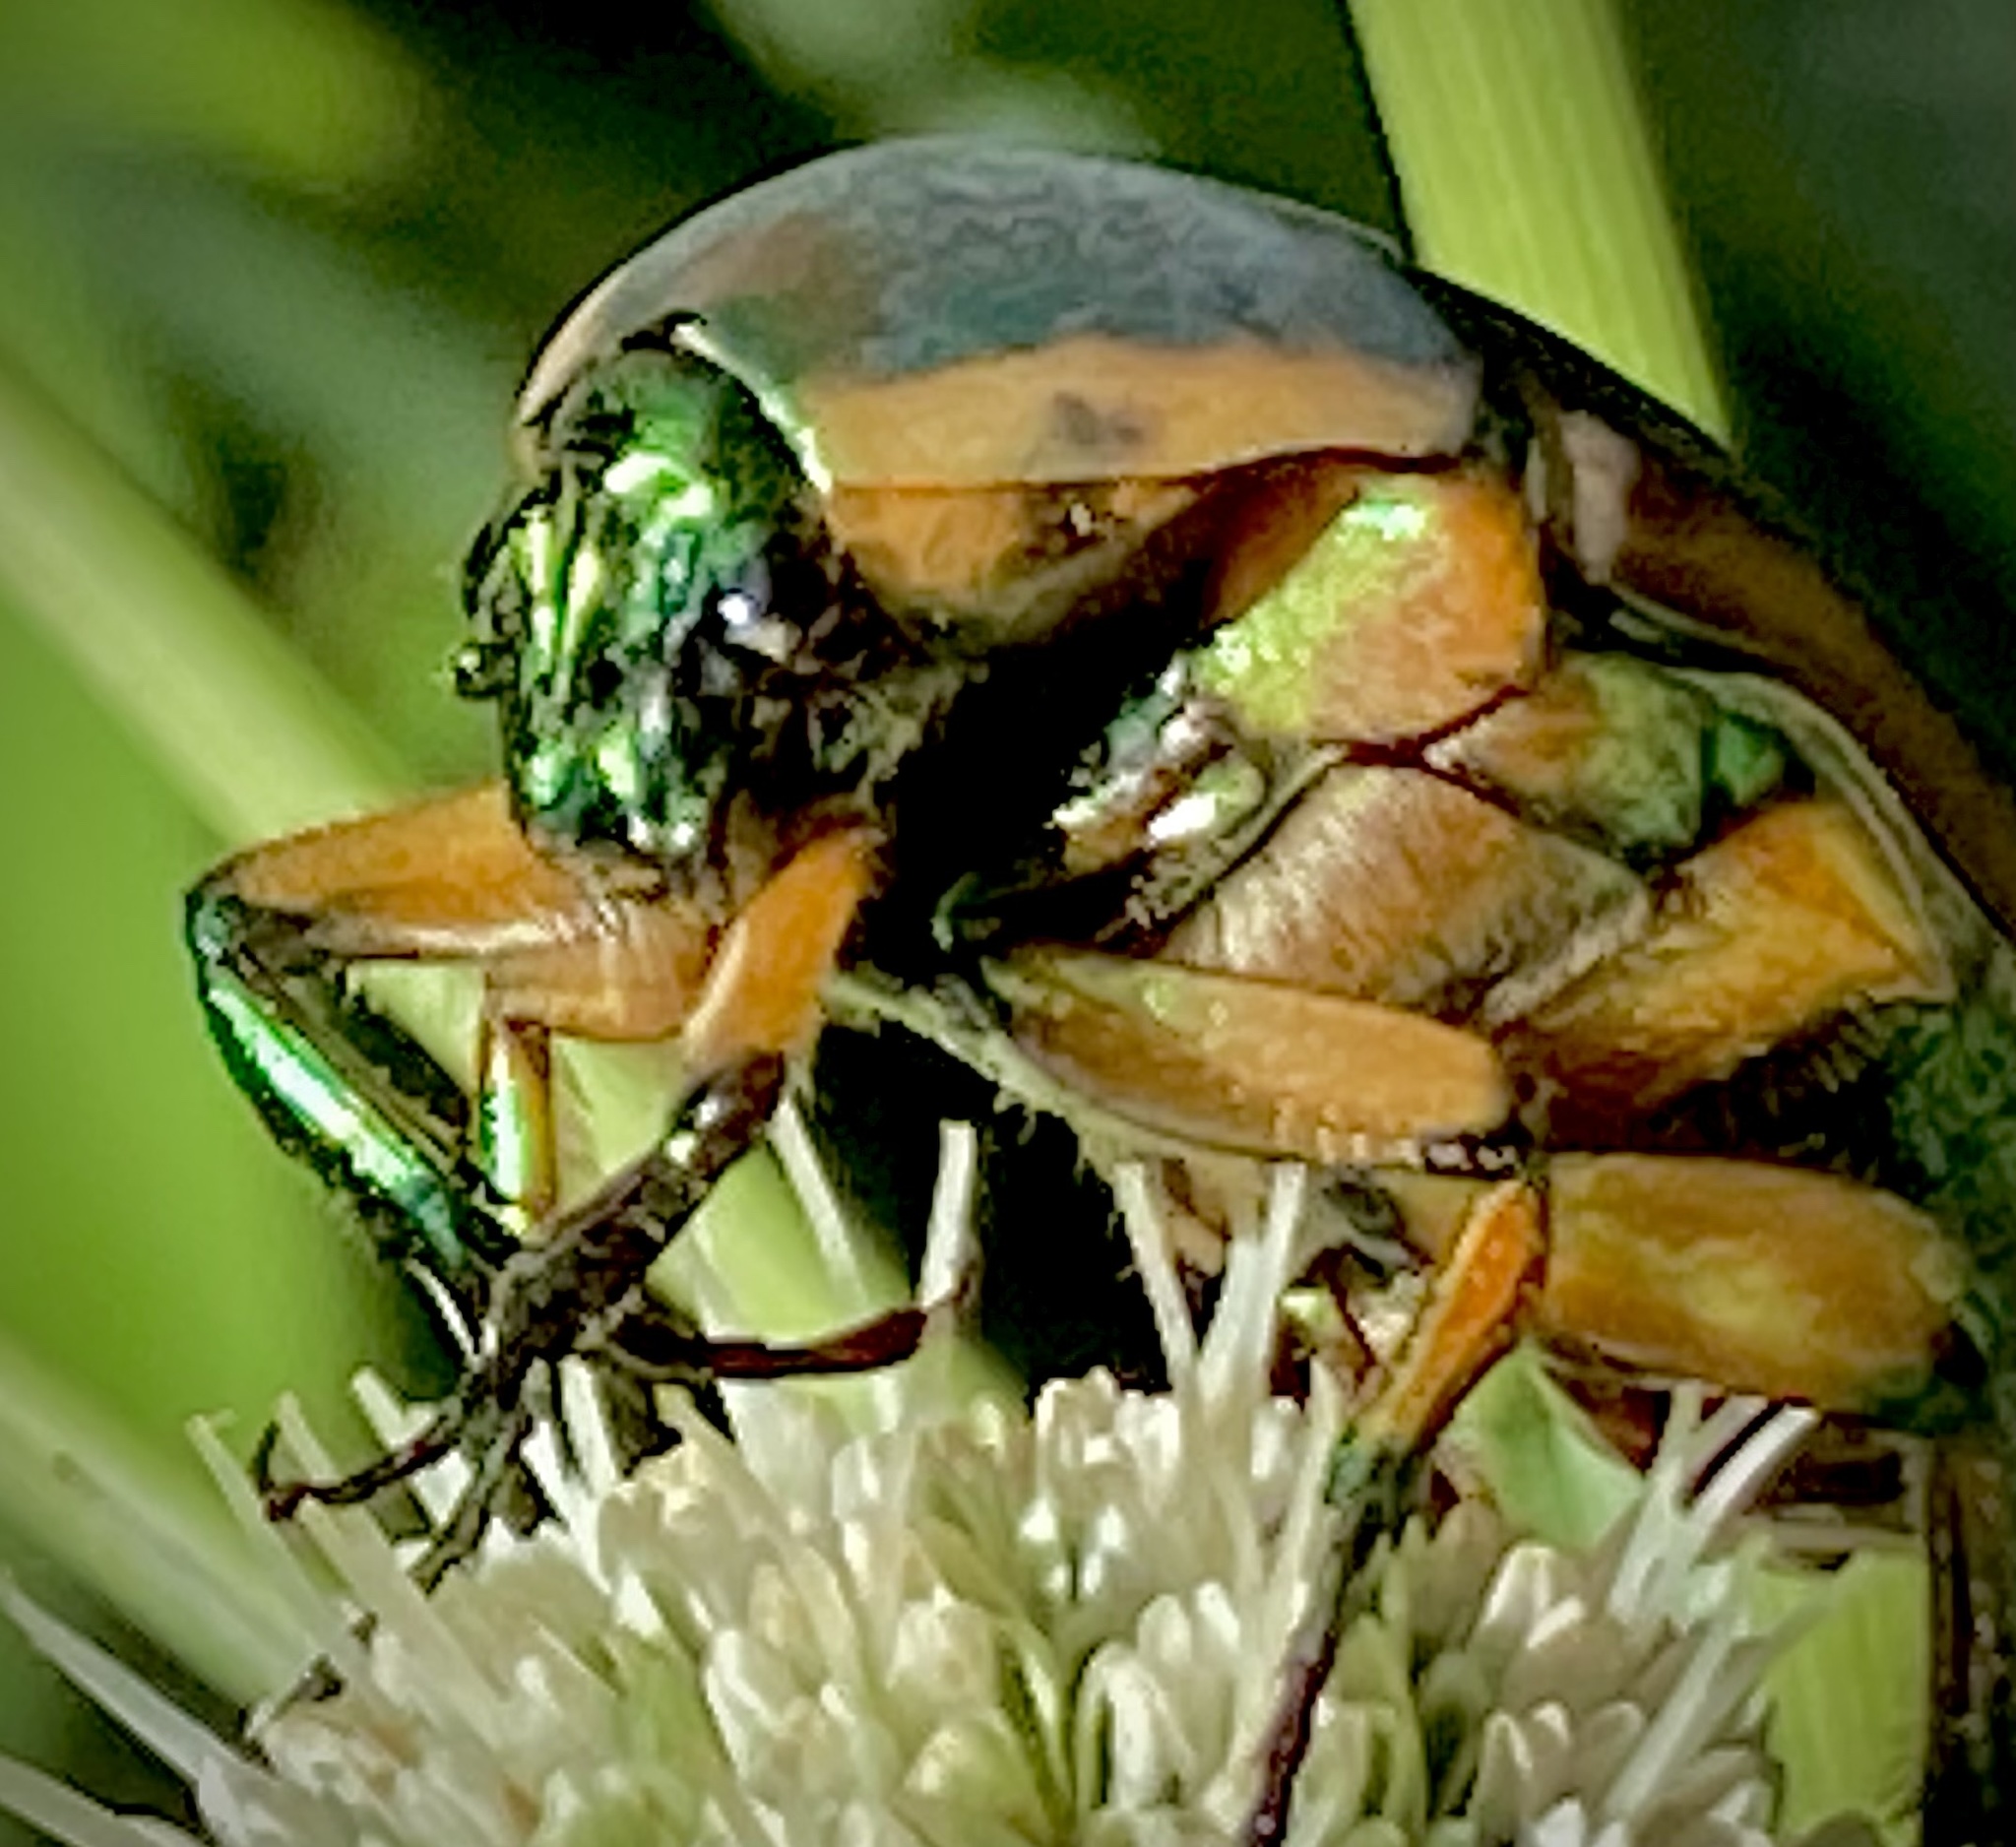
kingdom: Animalia
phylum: Arthropoda
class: Insecta
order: Coleoptera
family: Scarabaeidae
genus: Cotinis
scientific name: Cotinis nitida
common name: Common green june beetle
